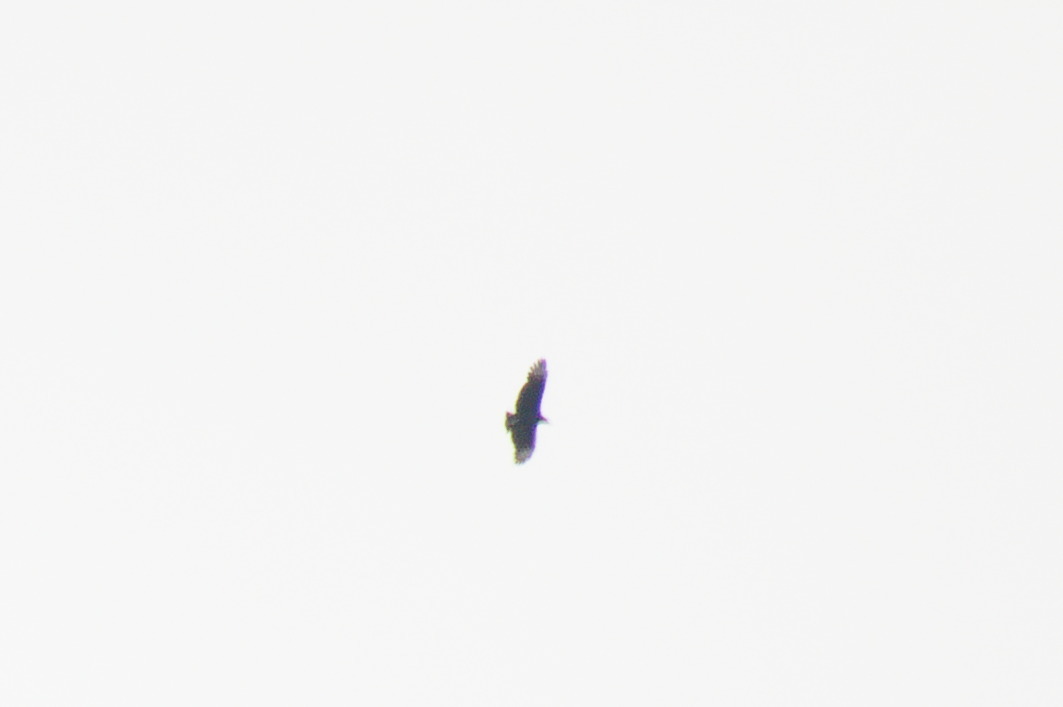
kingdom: Animalia
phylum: Chordata
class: Aves
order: Accipitriformes
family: Cathartidae
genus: Coragyps
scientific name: Coragyps atratus
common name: Black vulture
